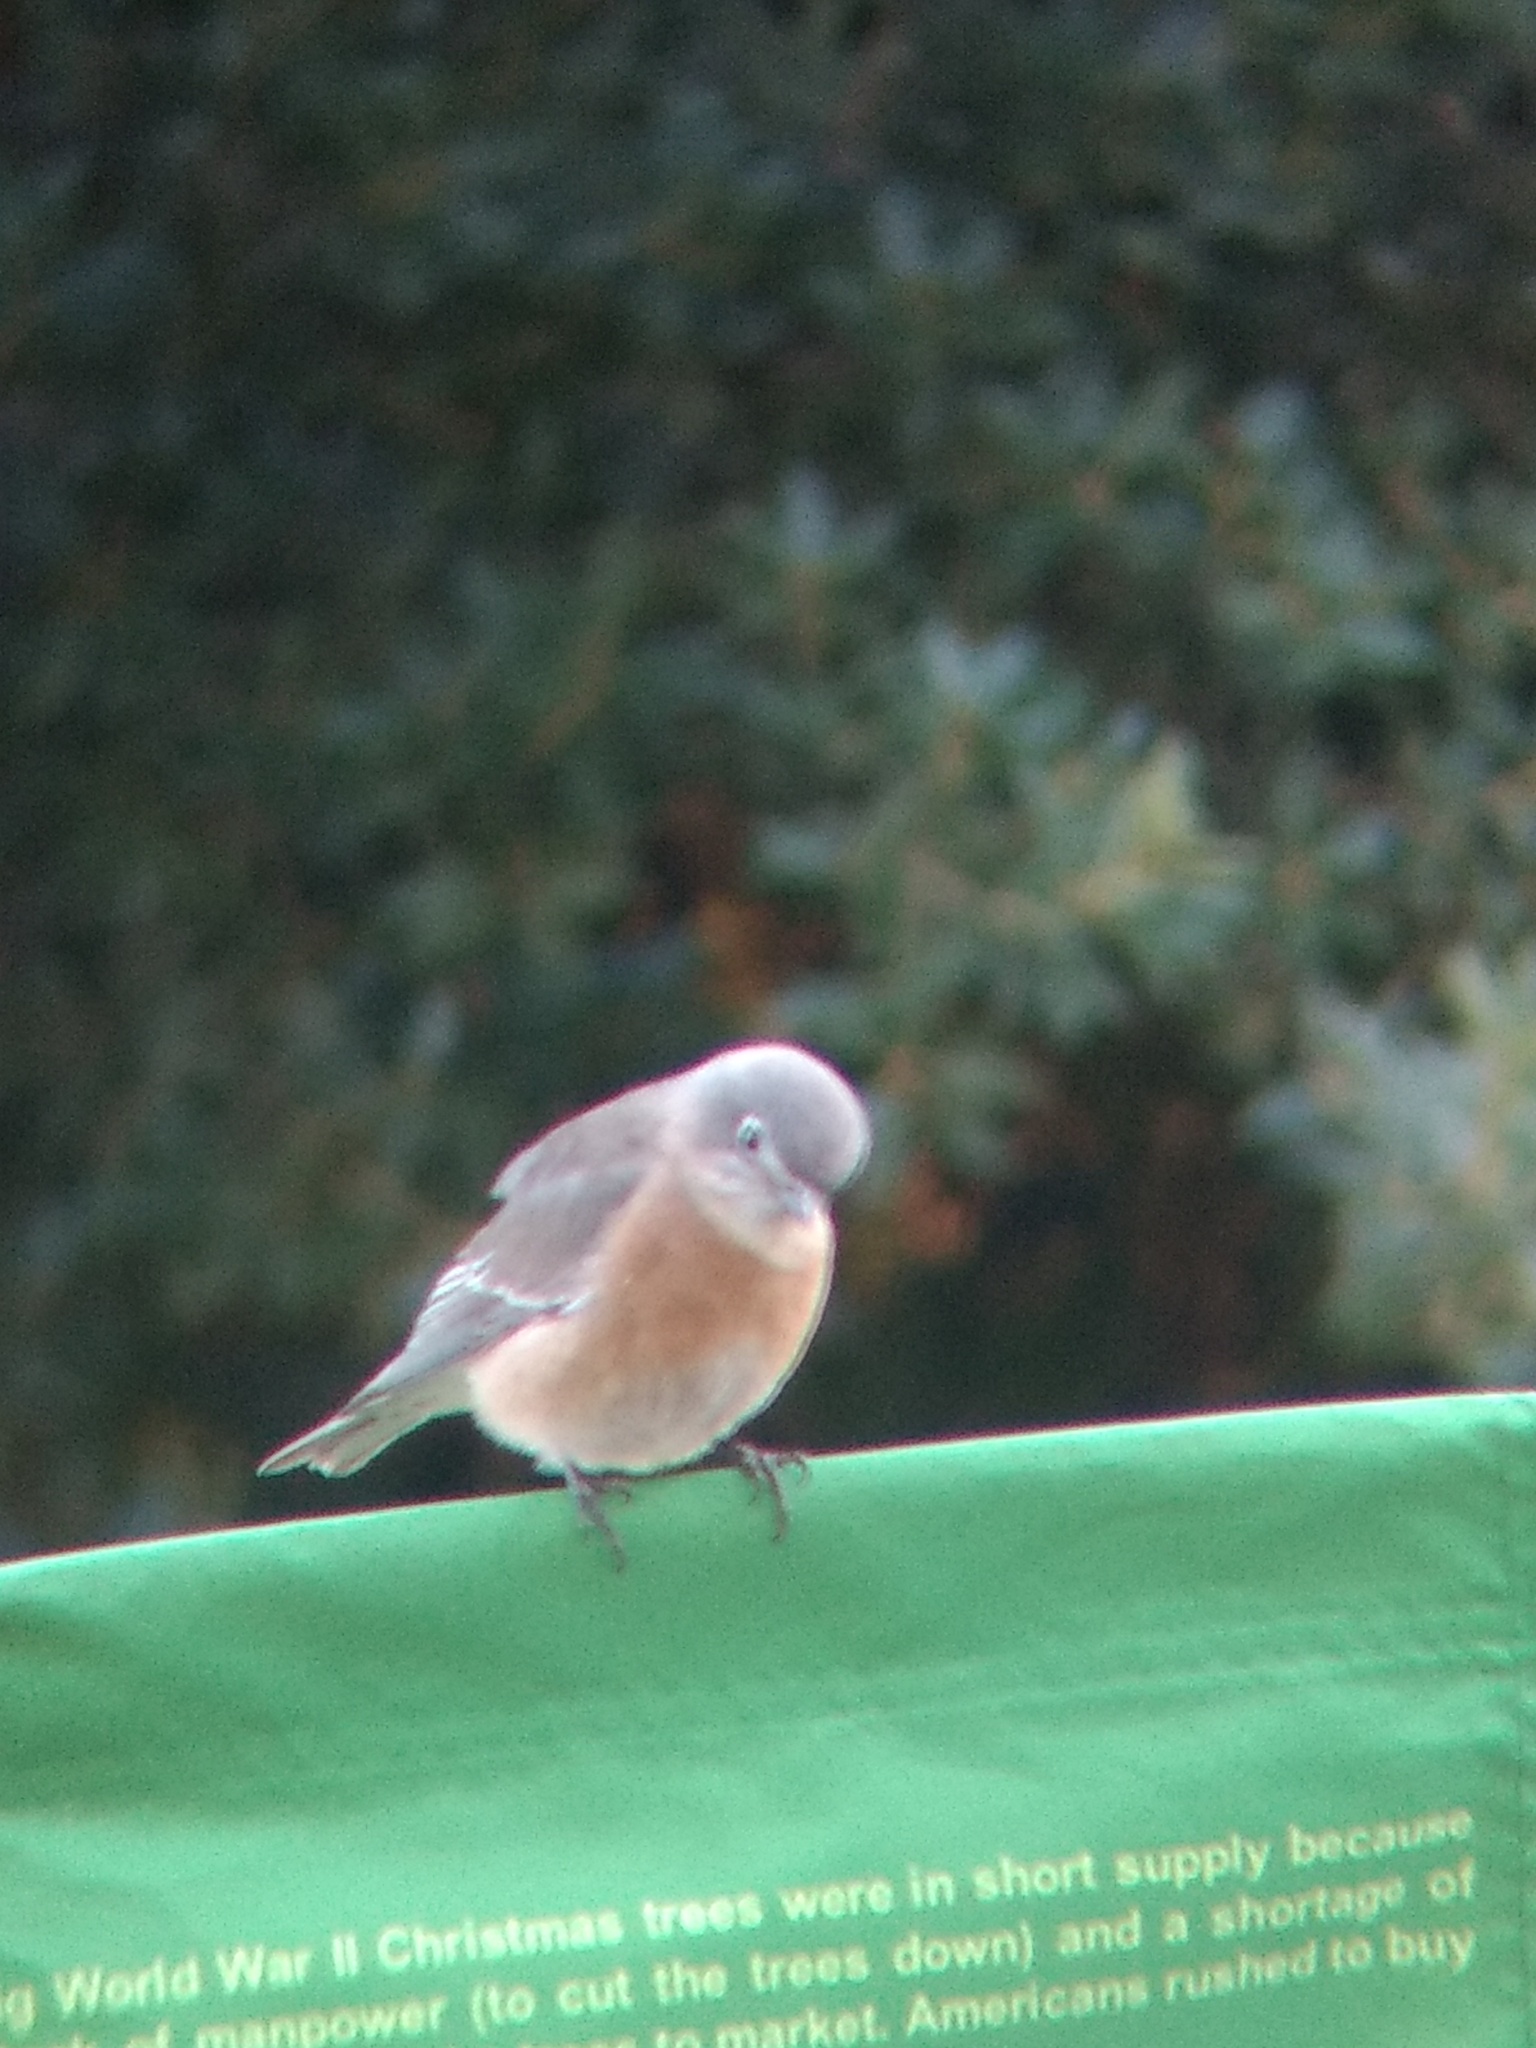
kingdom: Animalia
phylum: Chordata
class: Aves
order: Passeriformes
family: Turdidae
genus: Sialia
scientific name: Sialia mexicana
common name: Western bluebird
